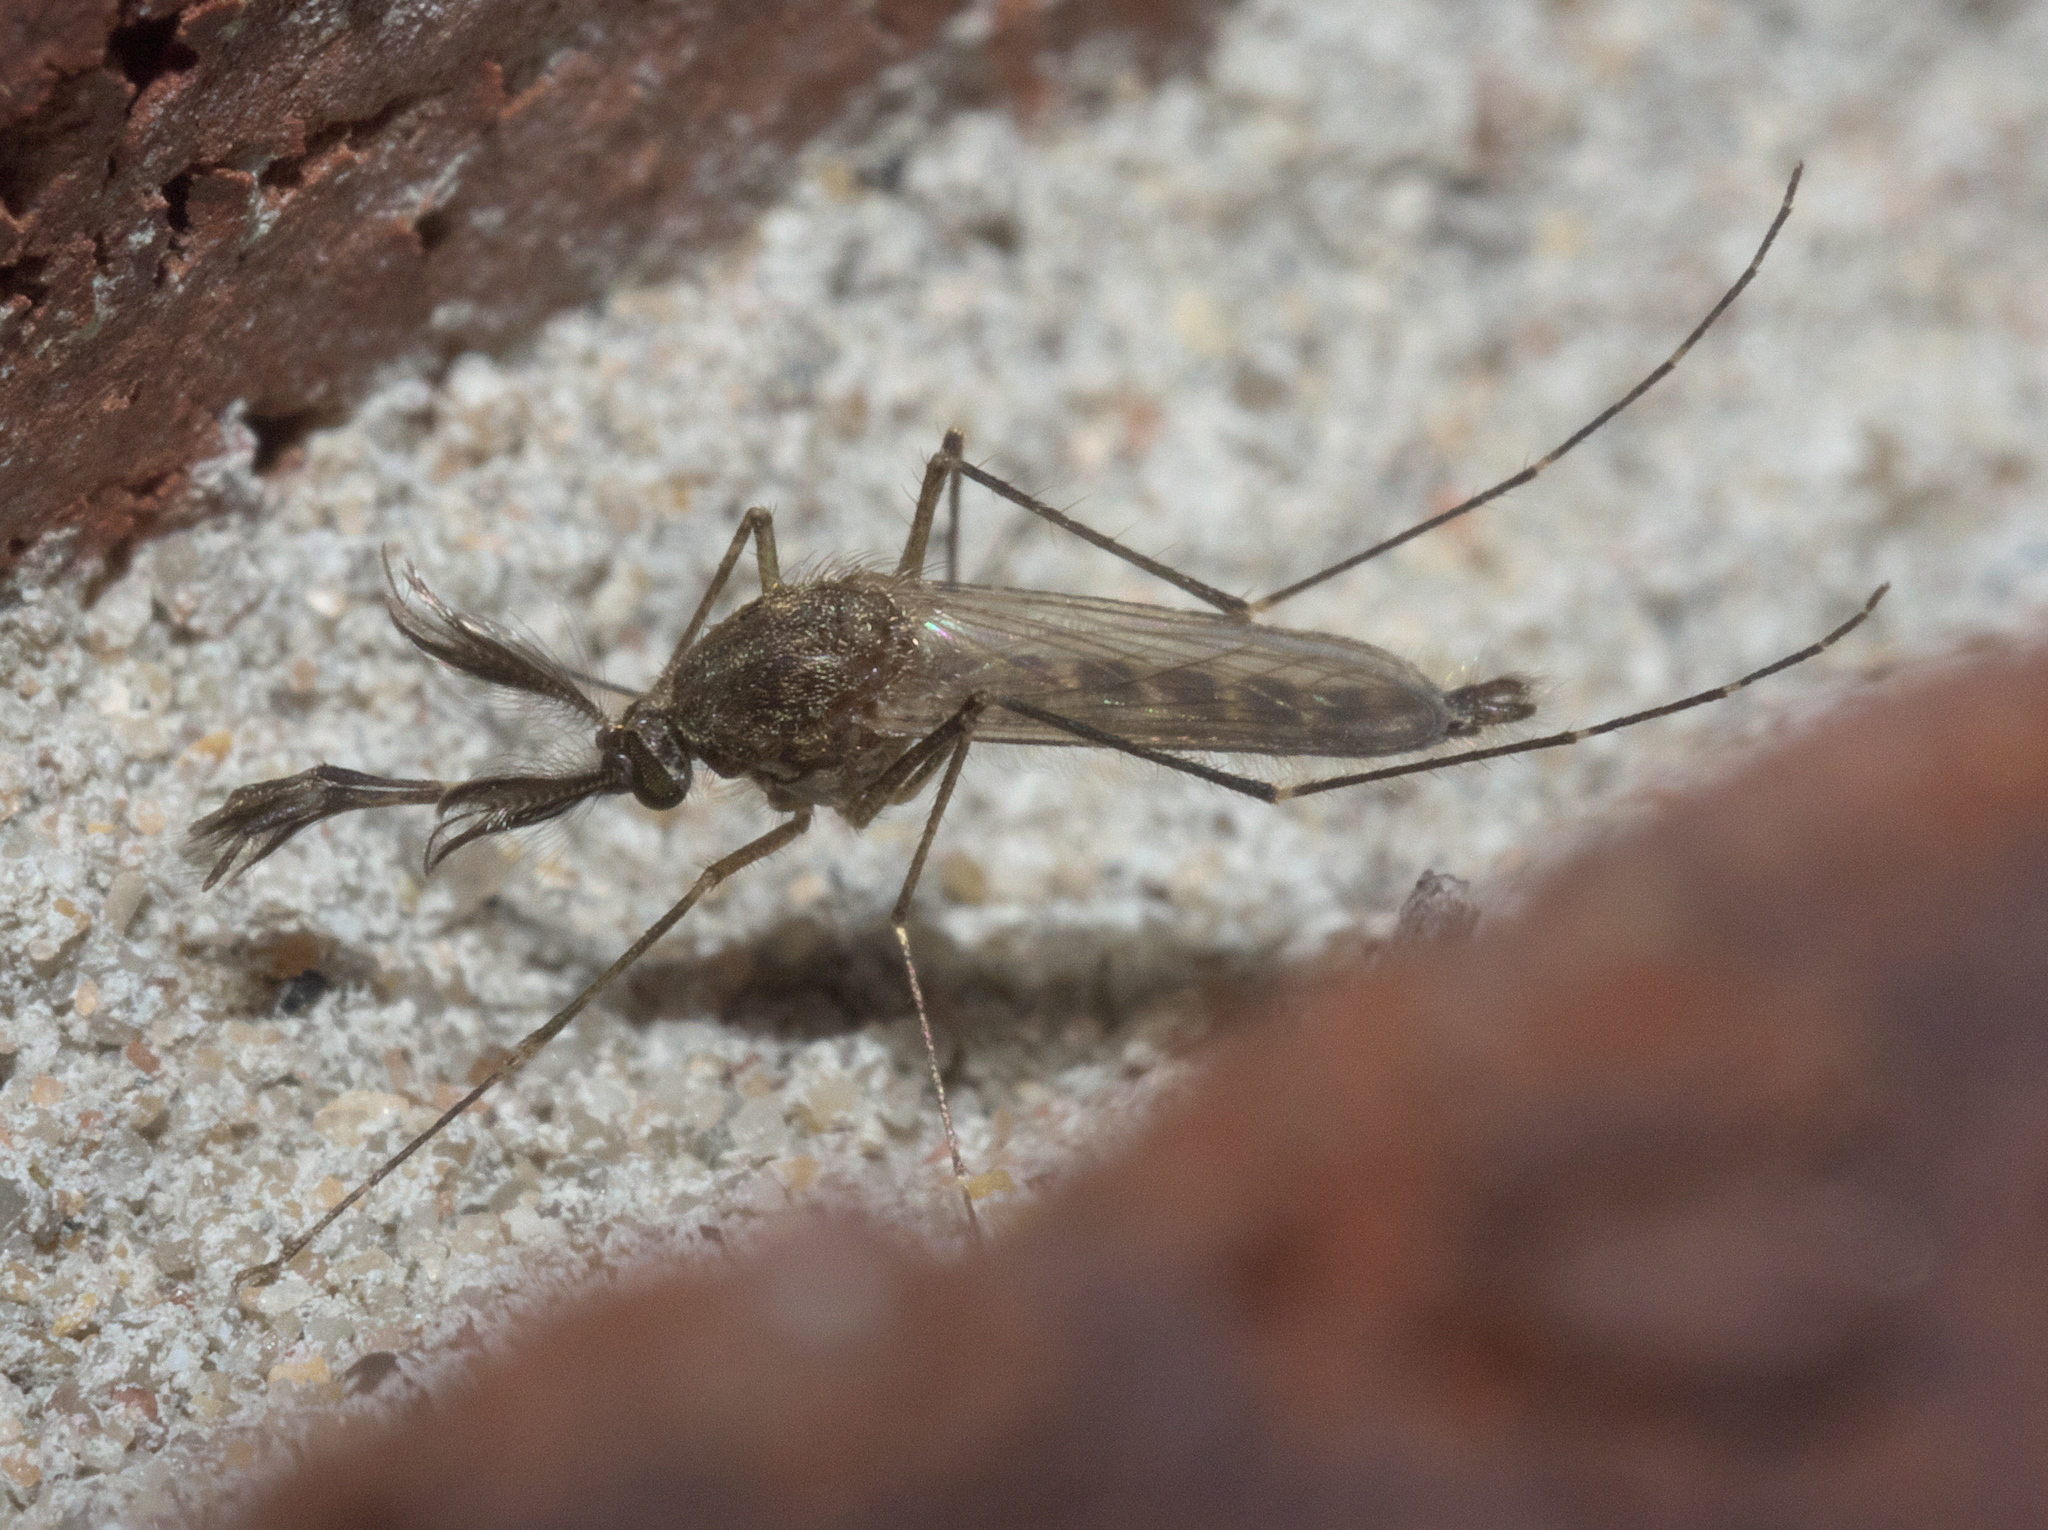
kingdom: Animalia
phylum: Arthropoda
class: Insecta
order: Diptera
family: Culicidae
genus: Aedes
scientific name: Aedes vexans
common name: Inland floodwater mosquito
